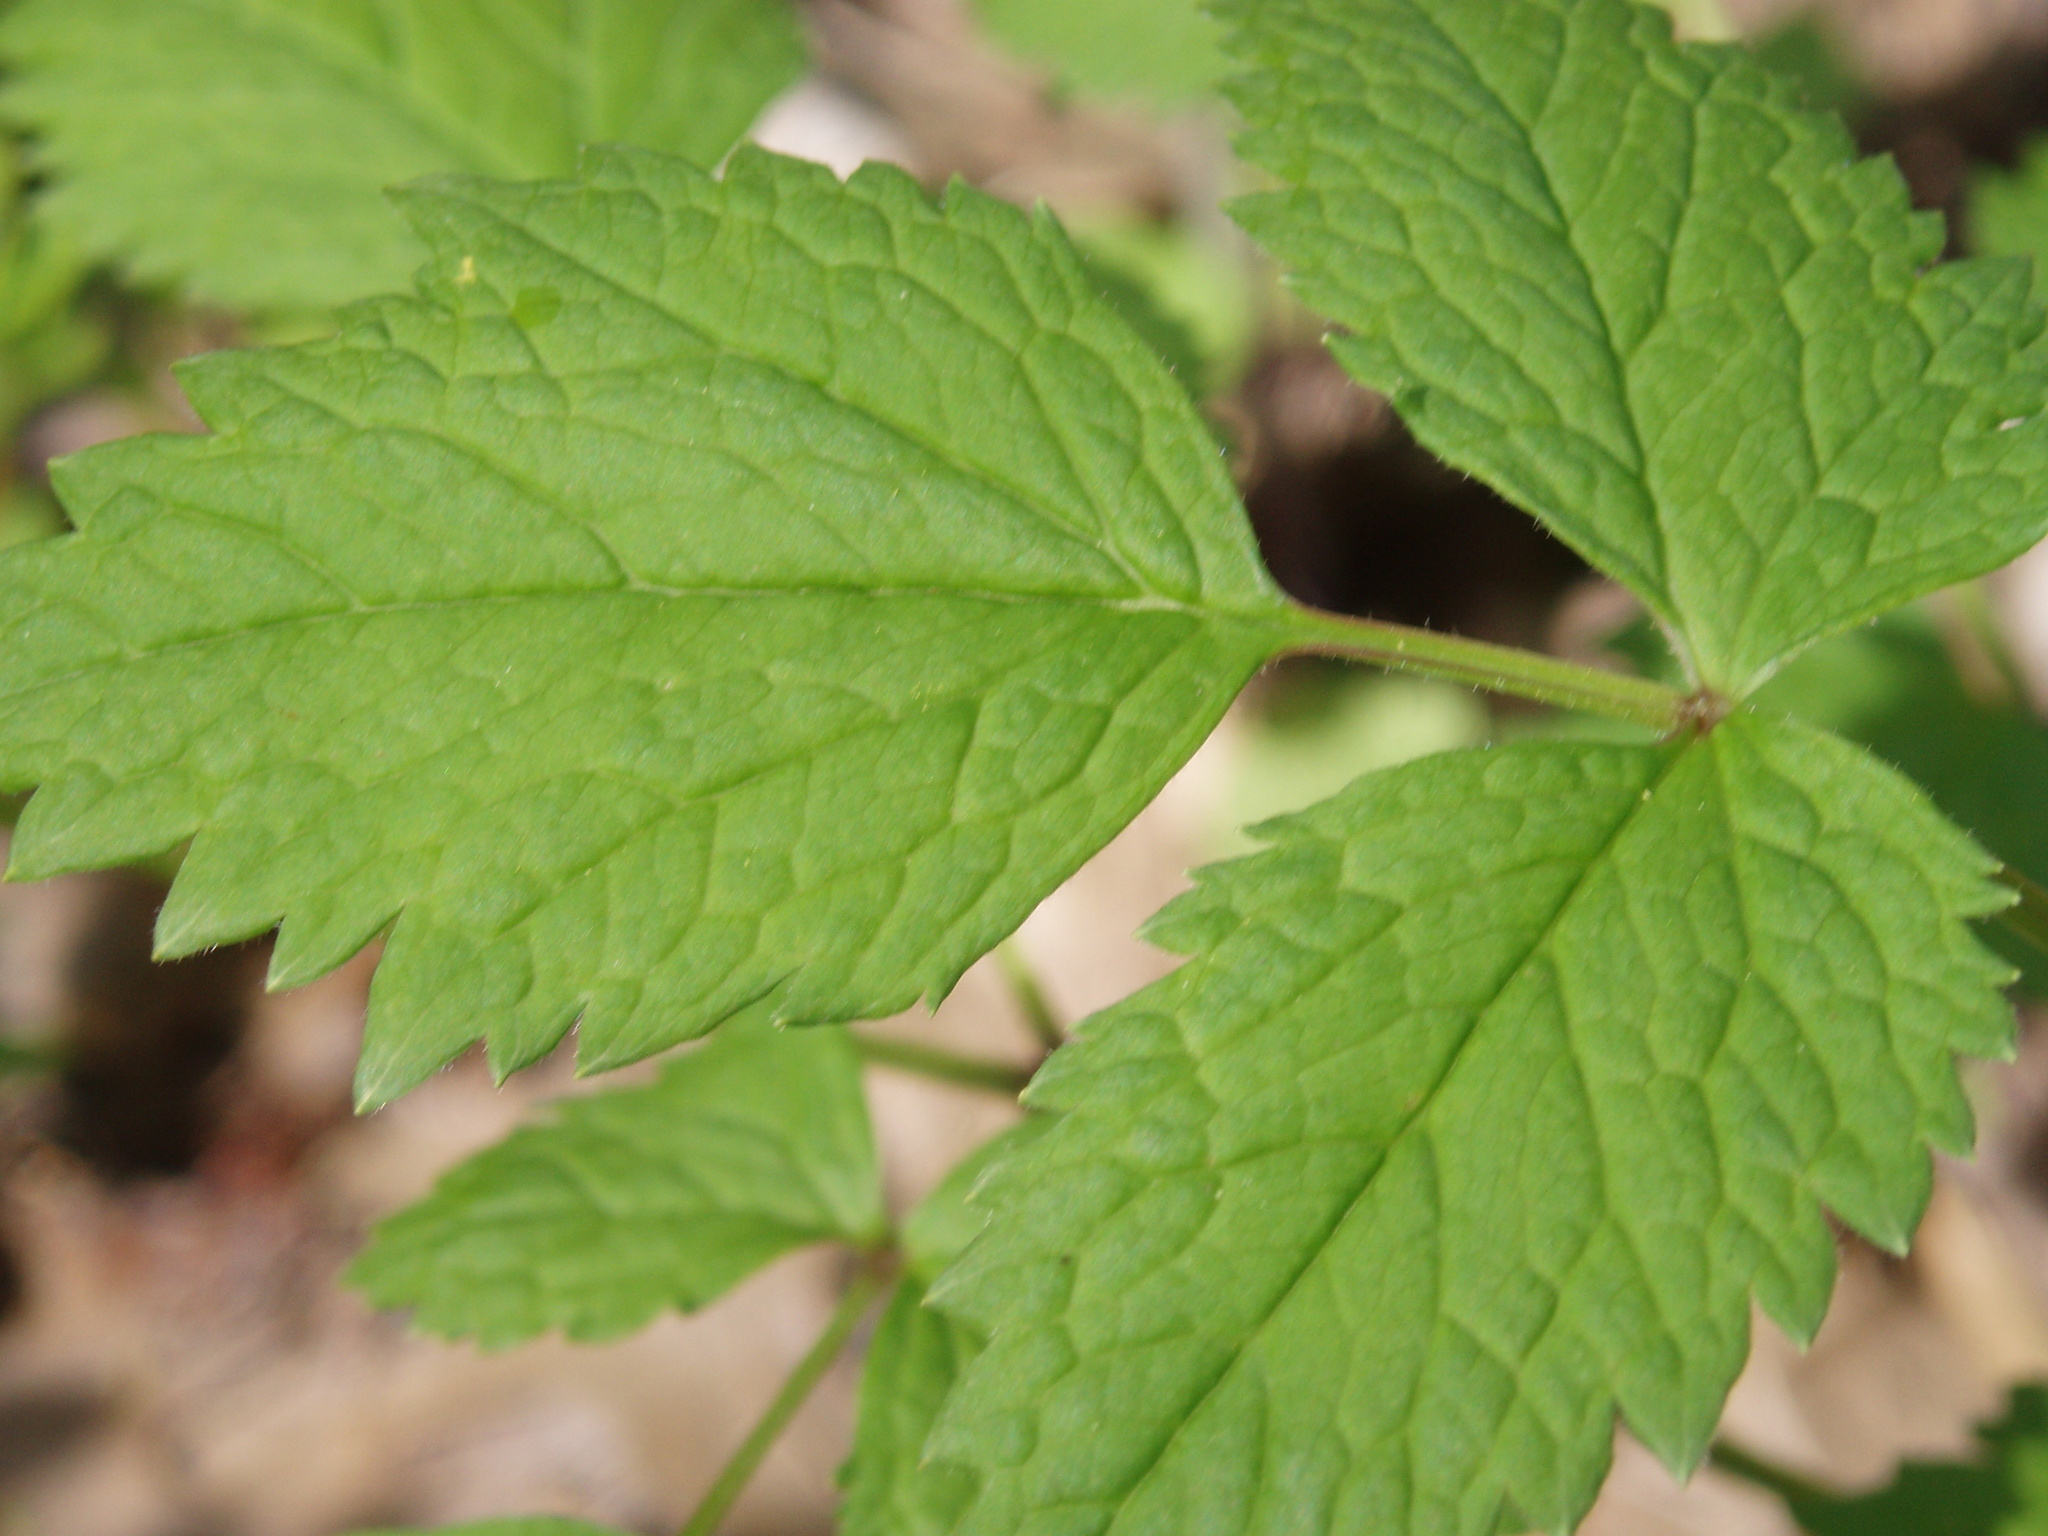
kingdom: Plantae
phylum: Tracheophyta
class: Magnoliopsida
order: Ranunculales
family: Ranunculaceae
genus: Actaea
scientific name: Actaea pachypoda
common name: Doll's-eyes
